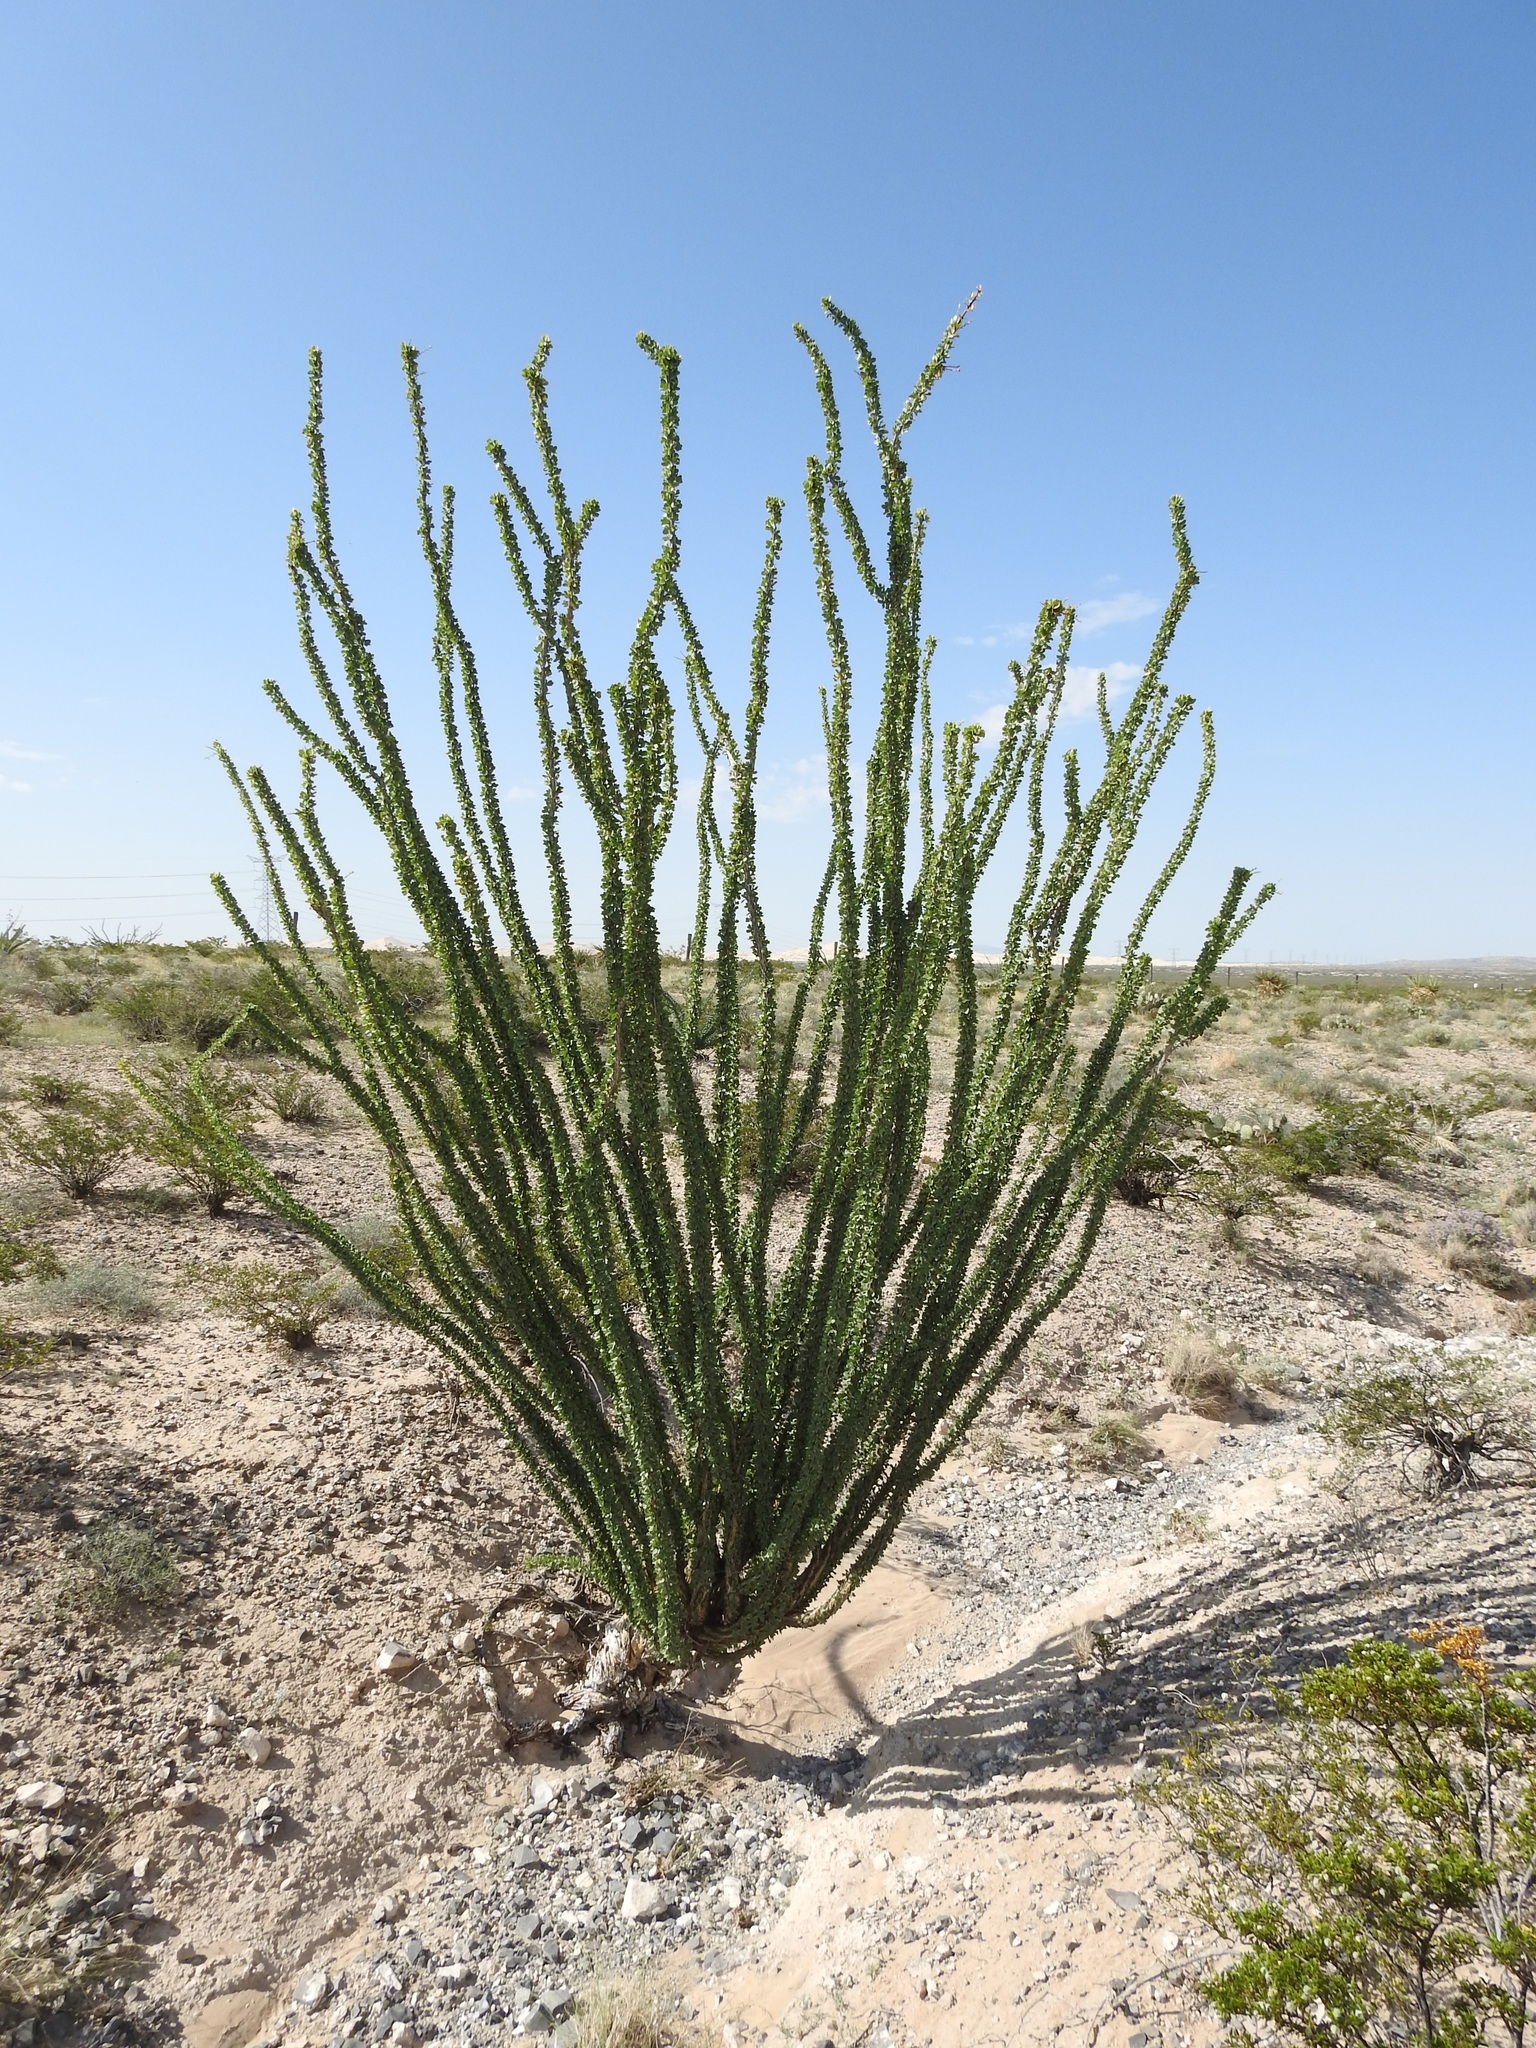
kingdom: Plantae
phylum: Tracheophyta
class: Magnoliopsida
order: Ericales
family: Fouquieriaceae
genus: Fouquieria
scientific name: Fouquieria splendens
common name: Vine-cactus
